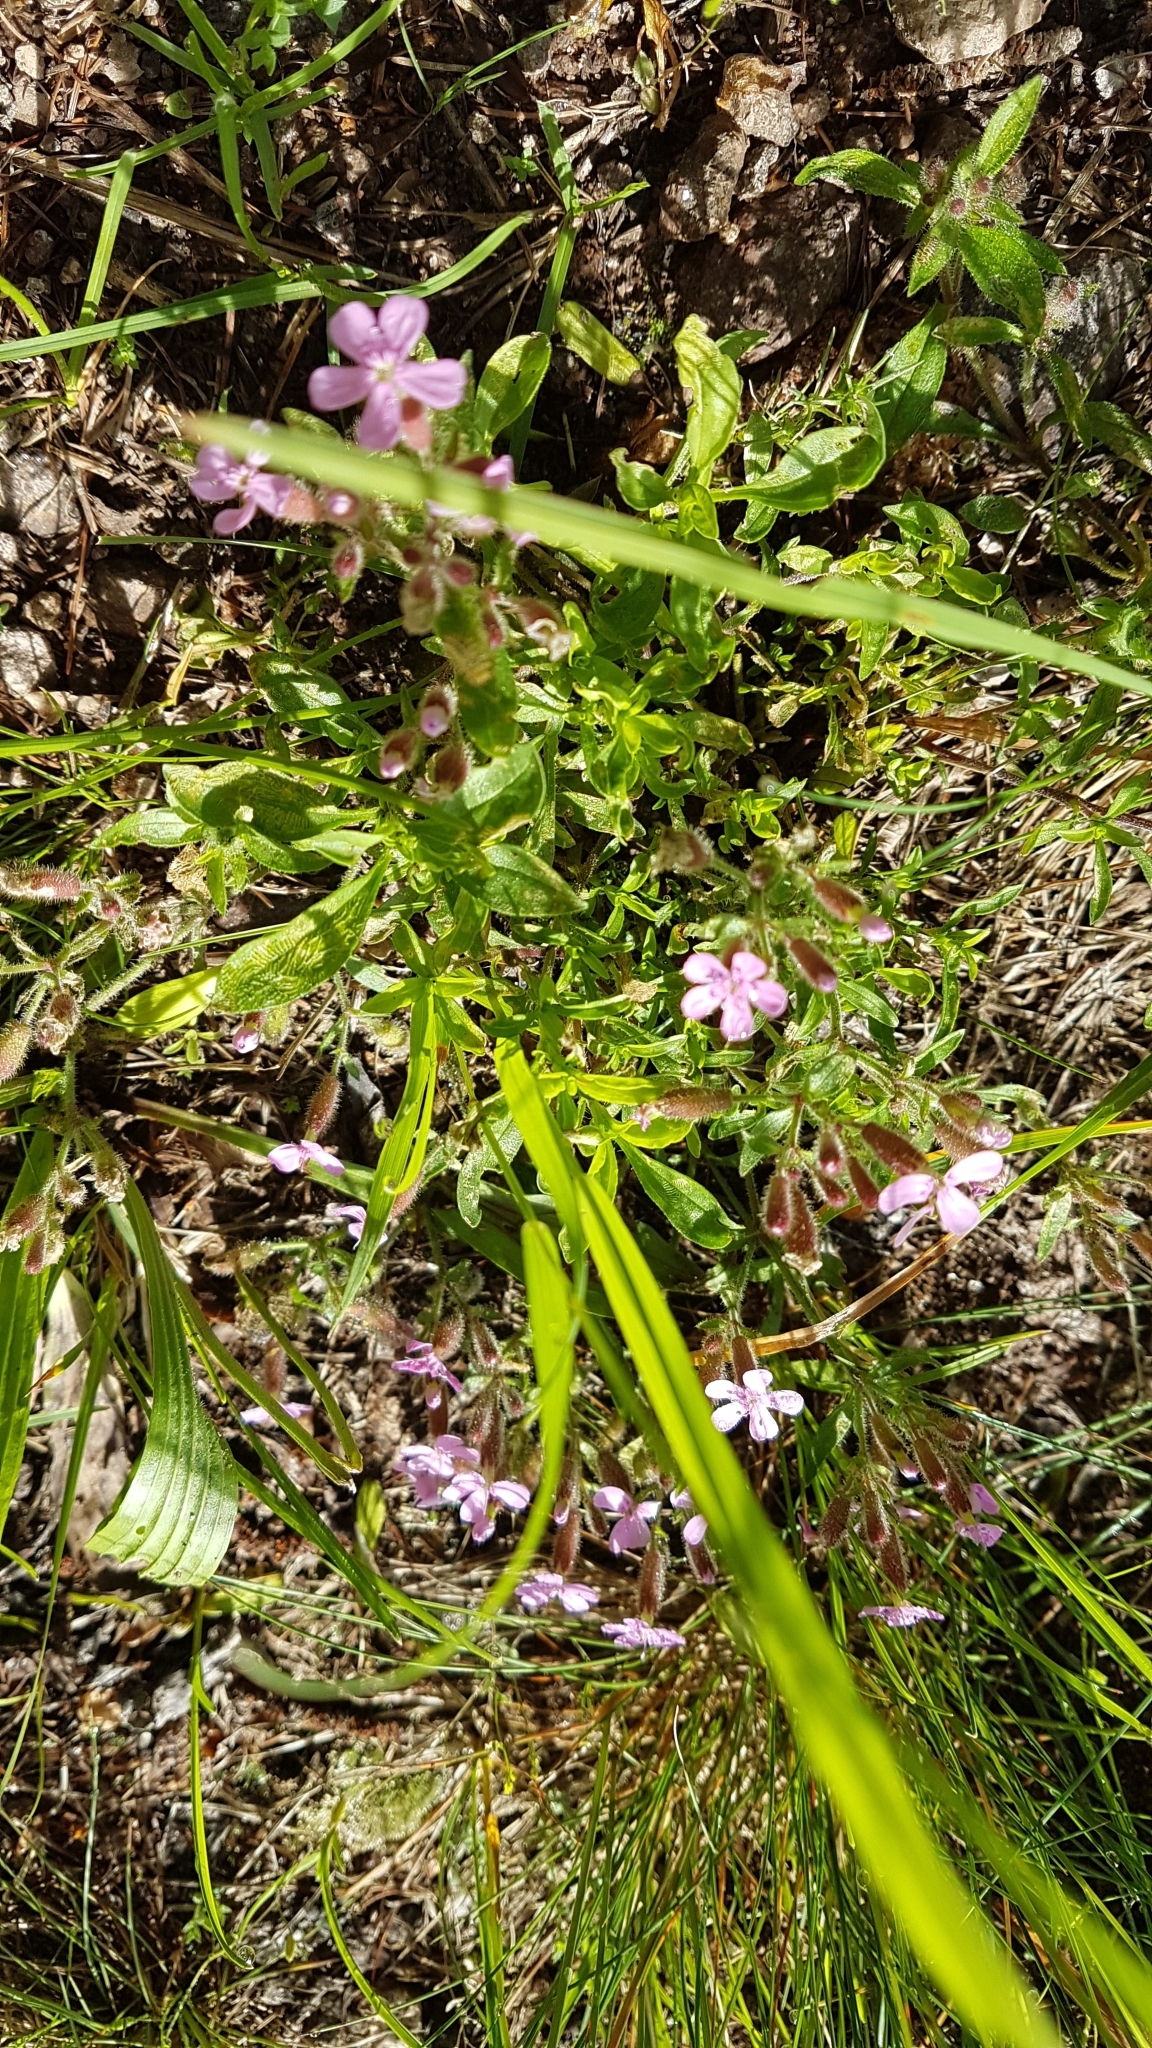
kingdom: Plantae
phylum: Tracheophyta
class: Magnoliopsida
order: Caryophyllales
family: Caryophyllaceae
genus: Saponaria
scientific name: Saponaria ocymoides
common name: Rock soapwort
